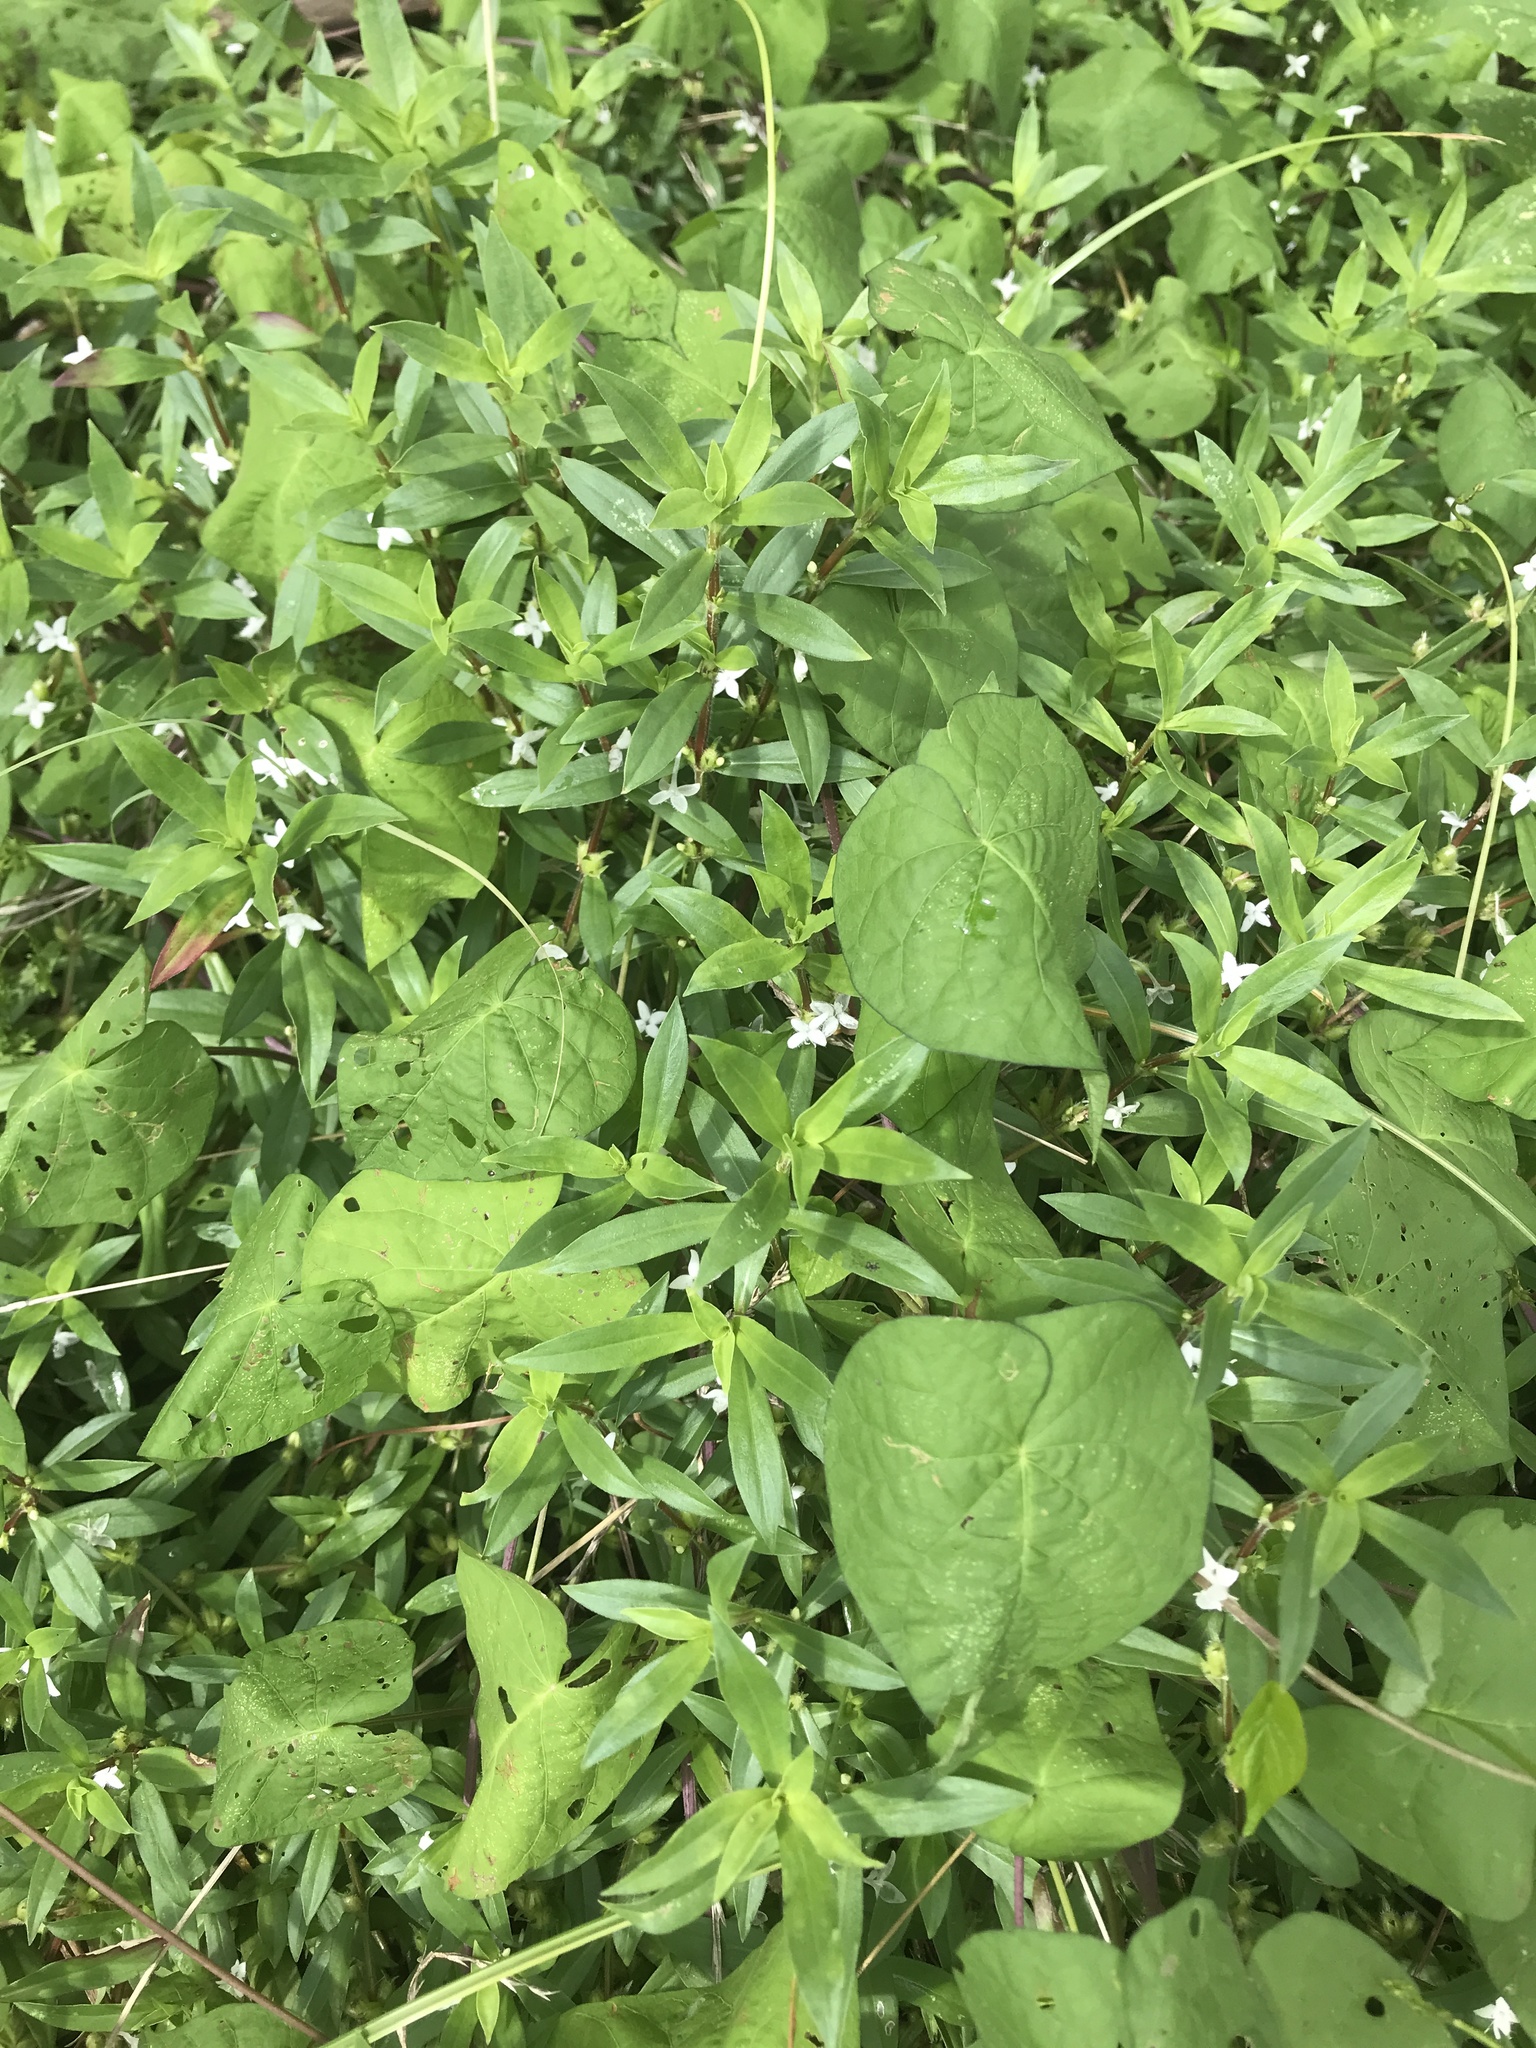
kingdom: Plantae
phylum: Tracheophyta
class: Magnoliopsida
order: Gentianales
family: Rubiaceae
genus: Diodia
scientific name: Diodia virginiana
